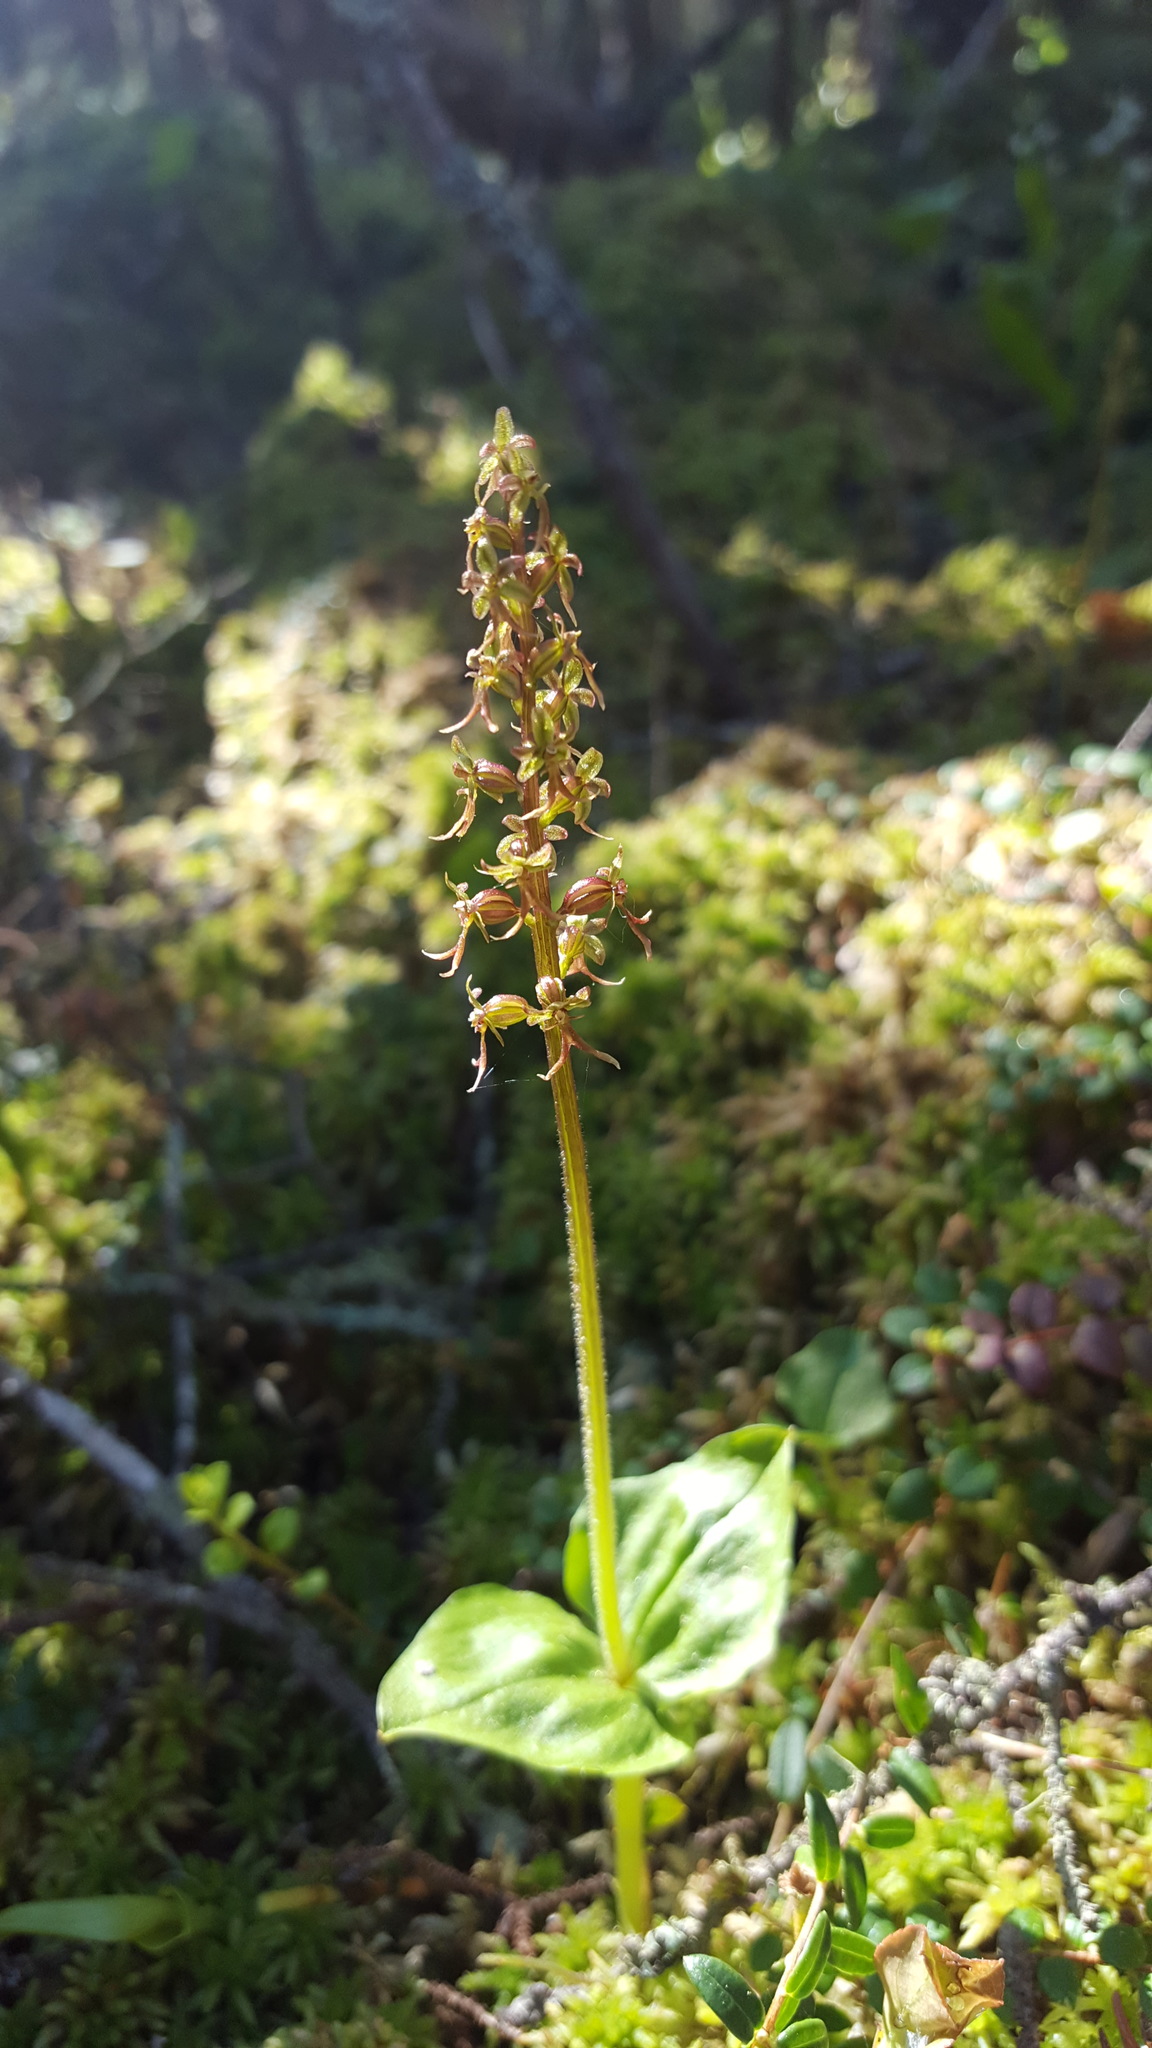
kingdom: Plantae
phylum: Tracheophyta
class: Liliopsida
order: Asparagales
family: Orchidaceae
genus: Neottia
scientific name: Neottia cordata
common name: Lesser twayblade
